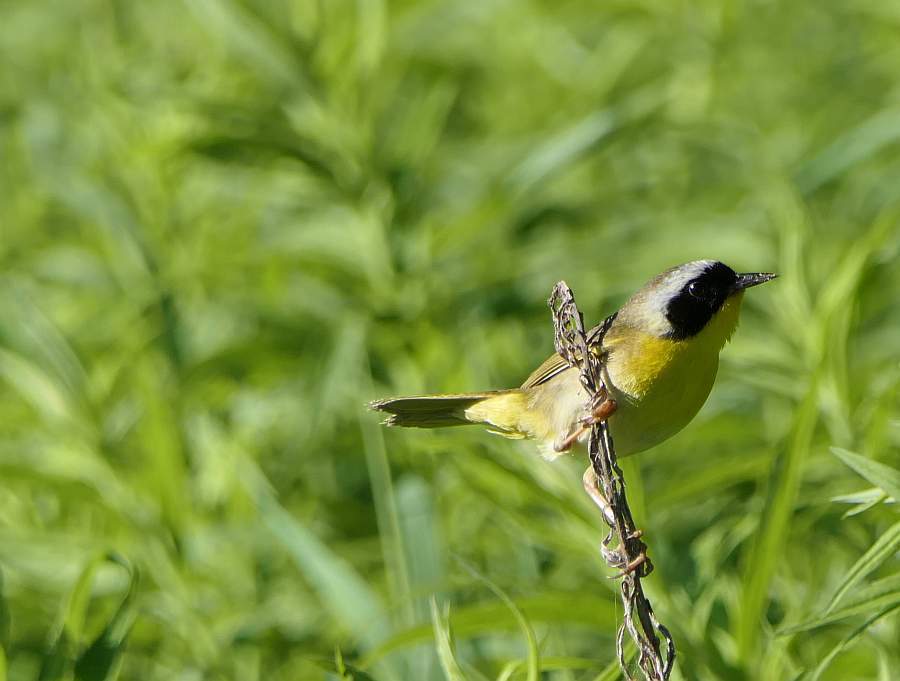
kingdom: Animalia
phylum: Chordata
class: Aves
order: Passeriformes
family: Parulidae
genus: Geothlypis
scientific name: Geothlypis trichas
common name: Common yellowthroat
